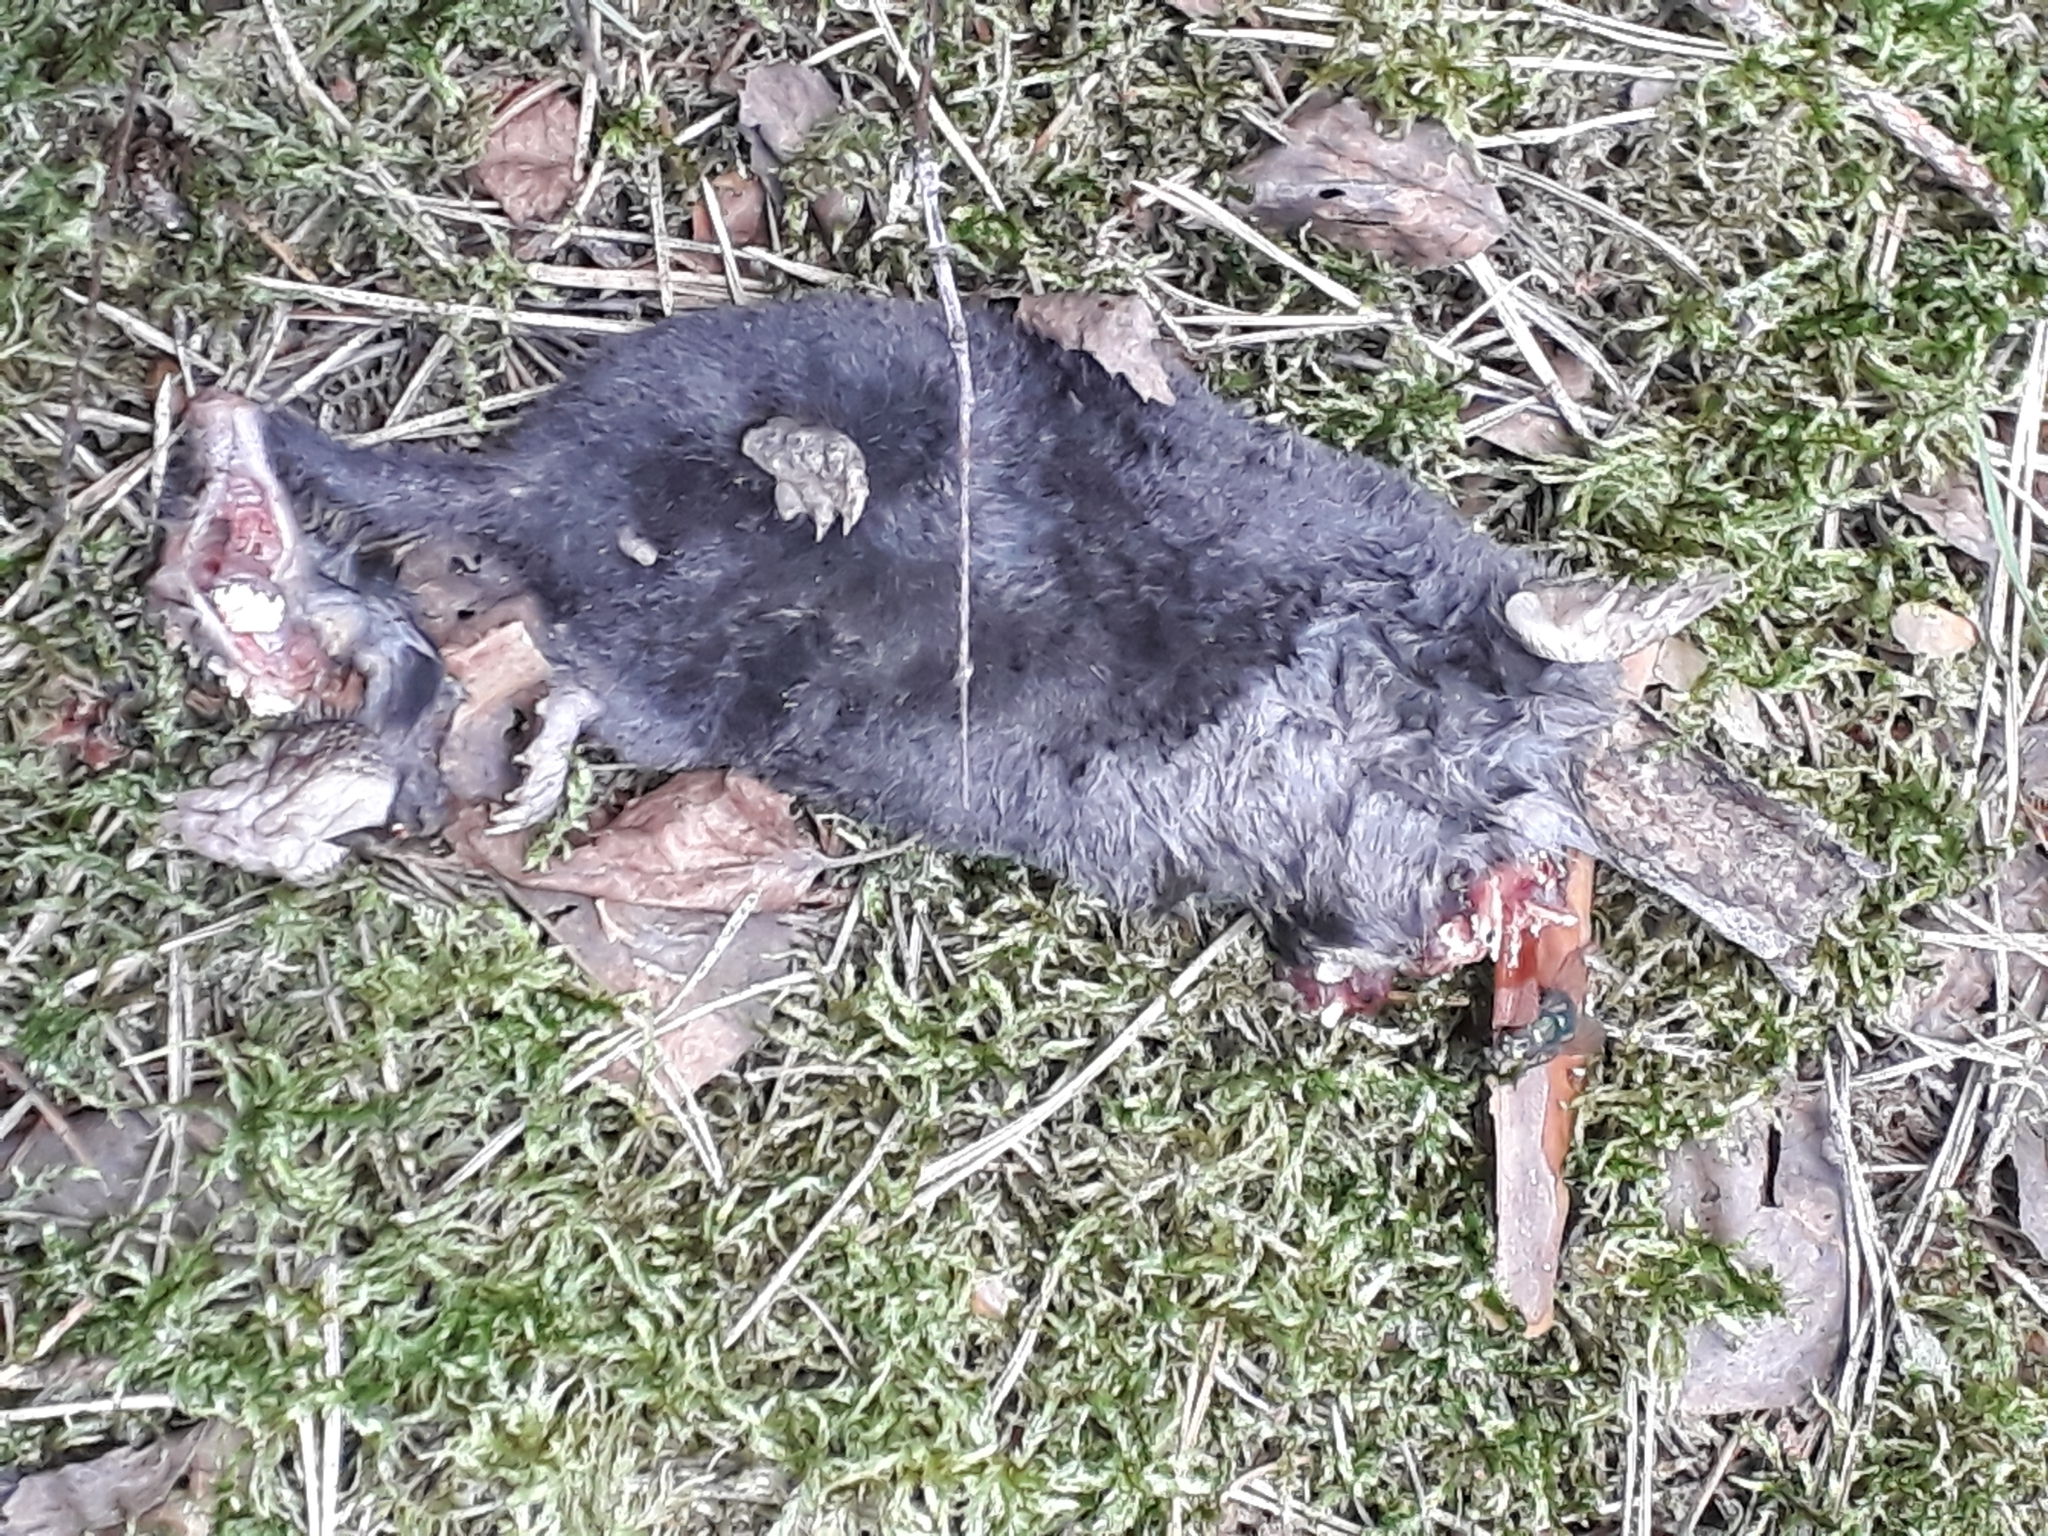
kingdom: Animalia
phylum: Chordata
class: Mammalia
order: Soricomorpha
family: Talpidae
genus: Talpa
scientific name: Talpa europaea
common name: European mole
